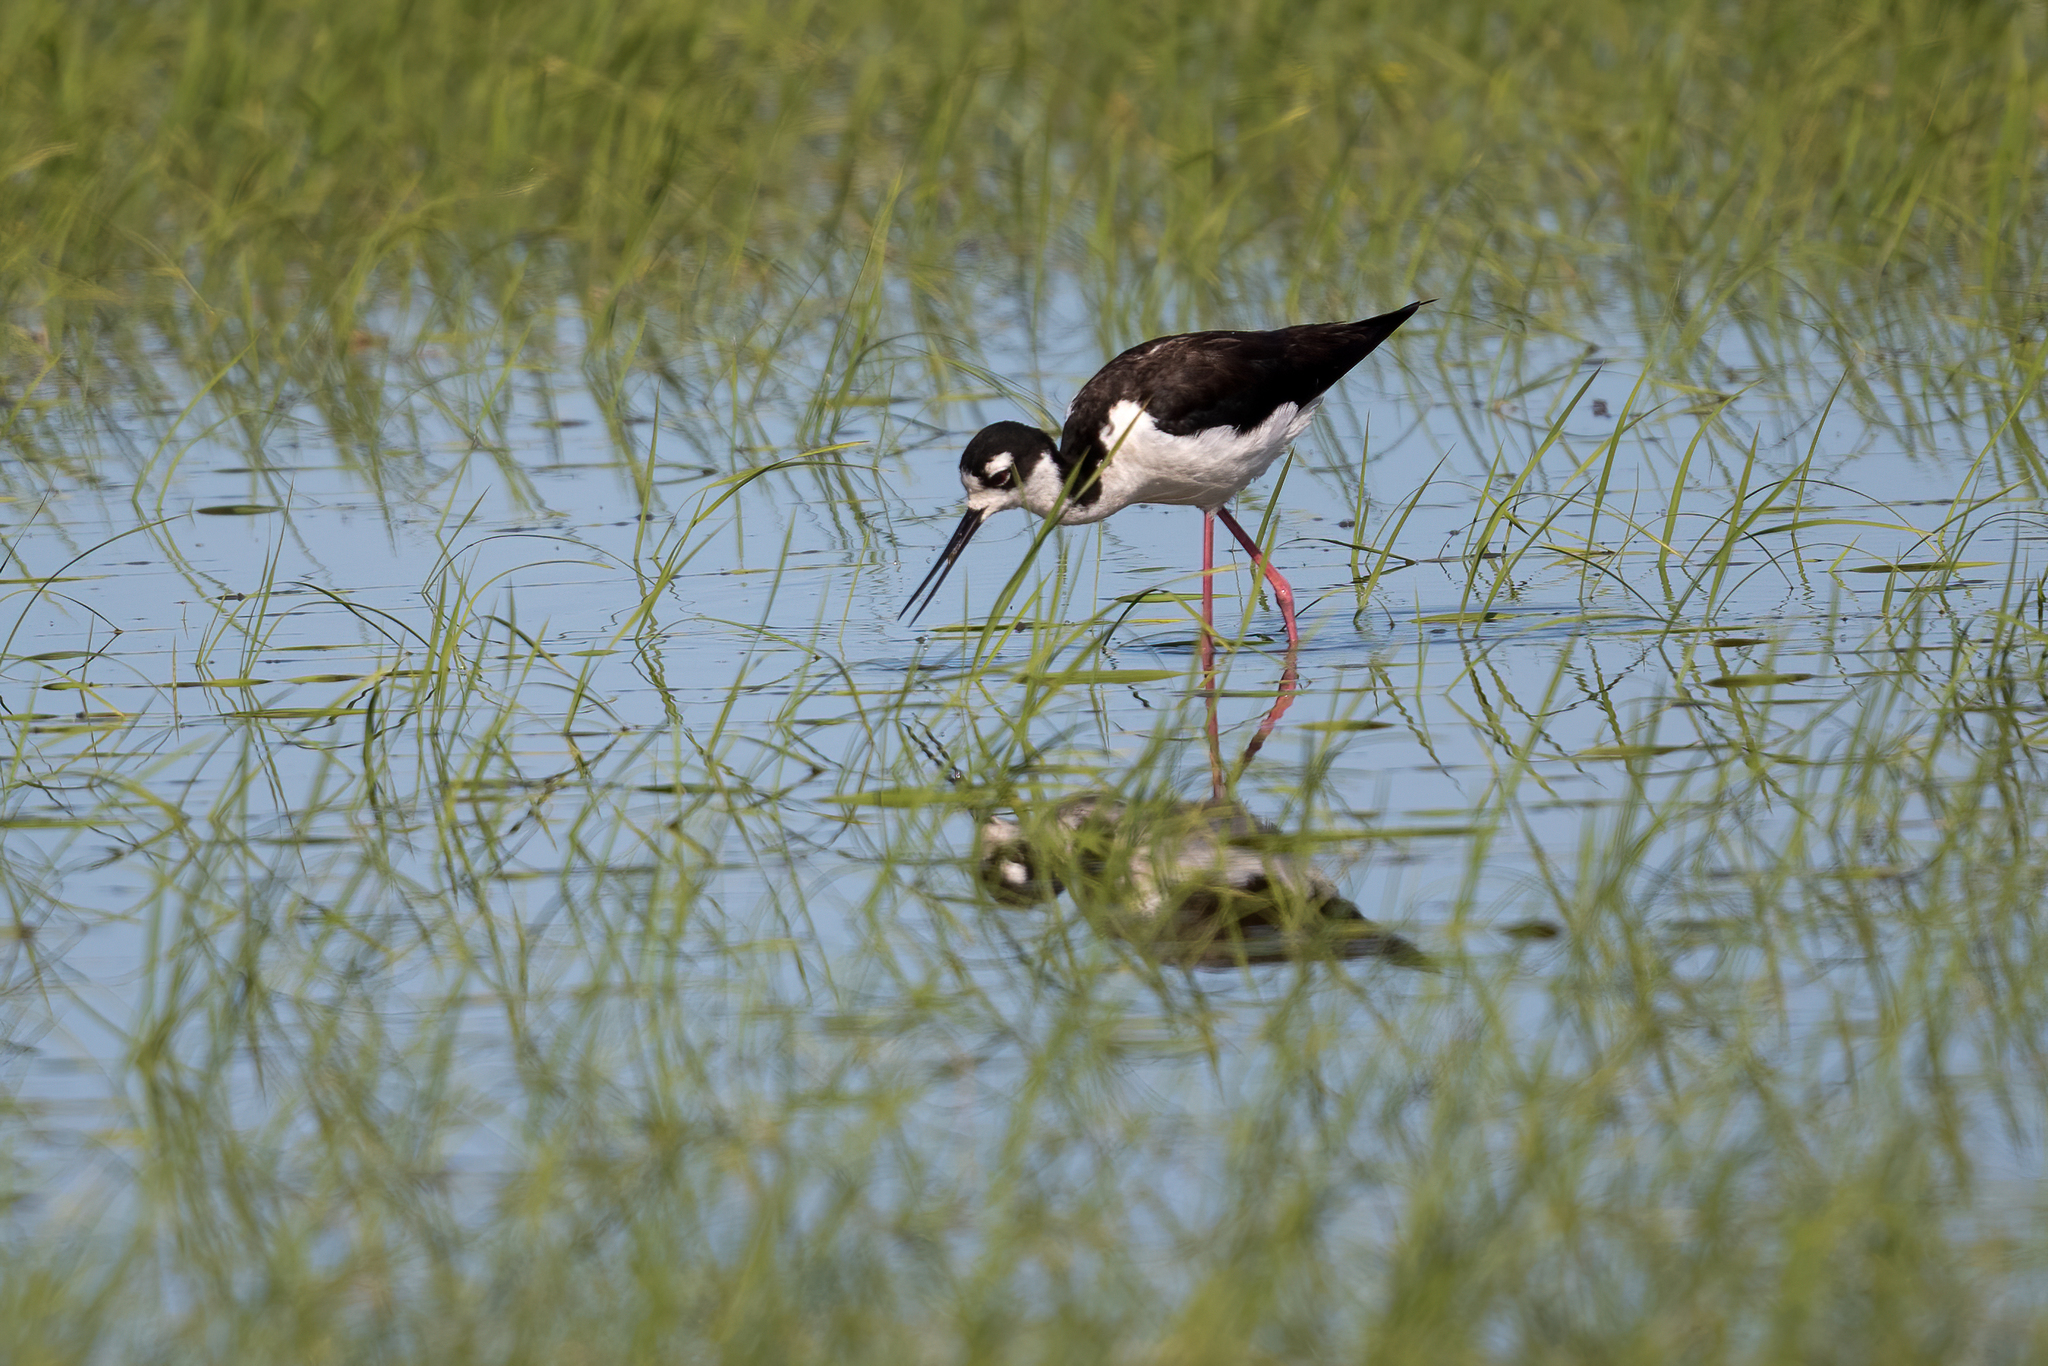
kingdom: Animalia
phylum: Chordata
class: Aves
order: Charadriiformes
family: Recurvirostridae
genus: Himantopus
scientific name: Himantopus mexicanus
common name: Black-necked stilt
